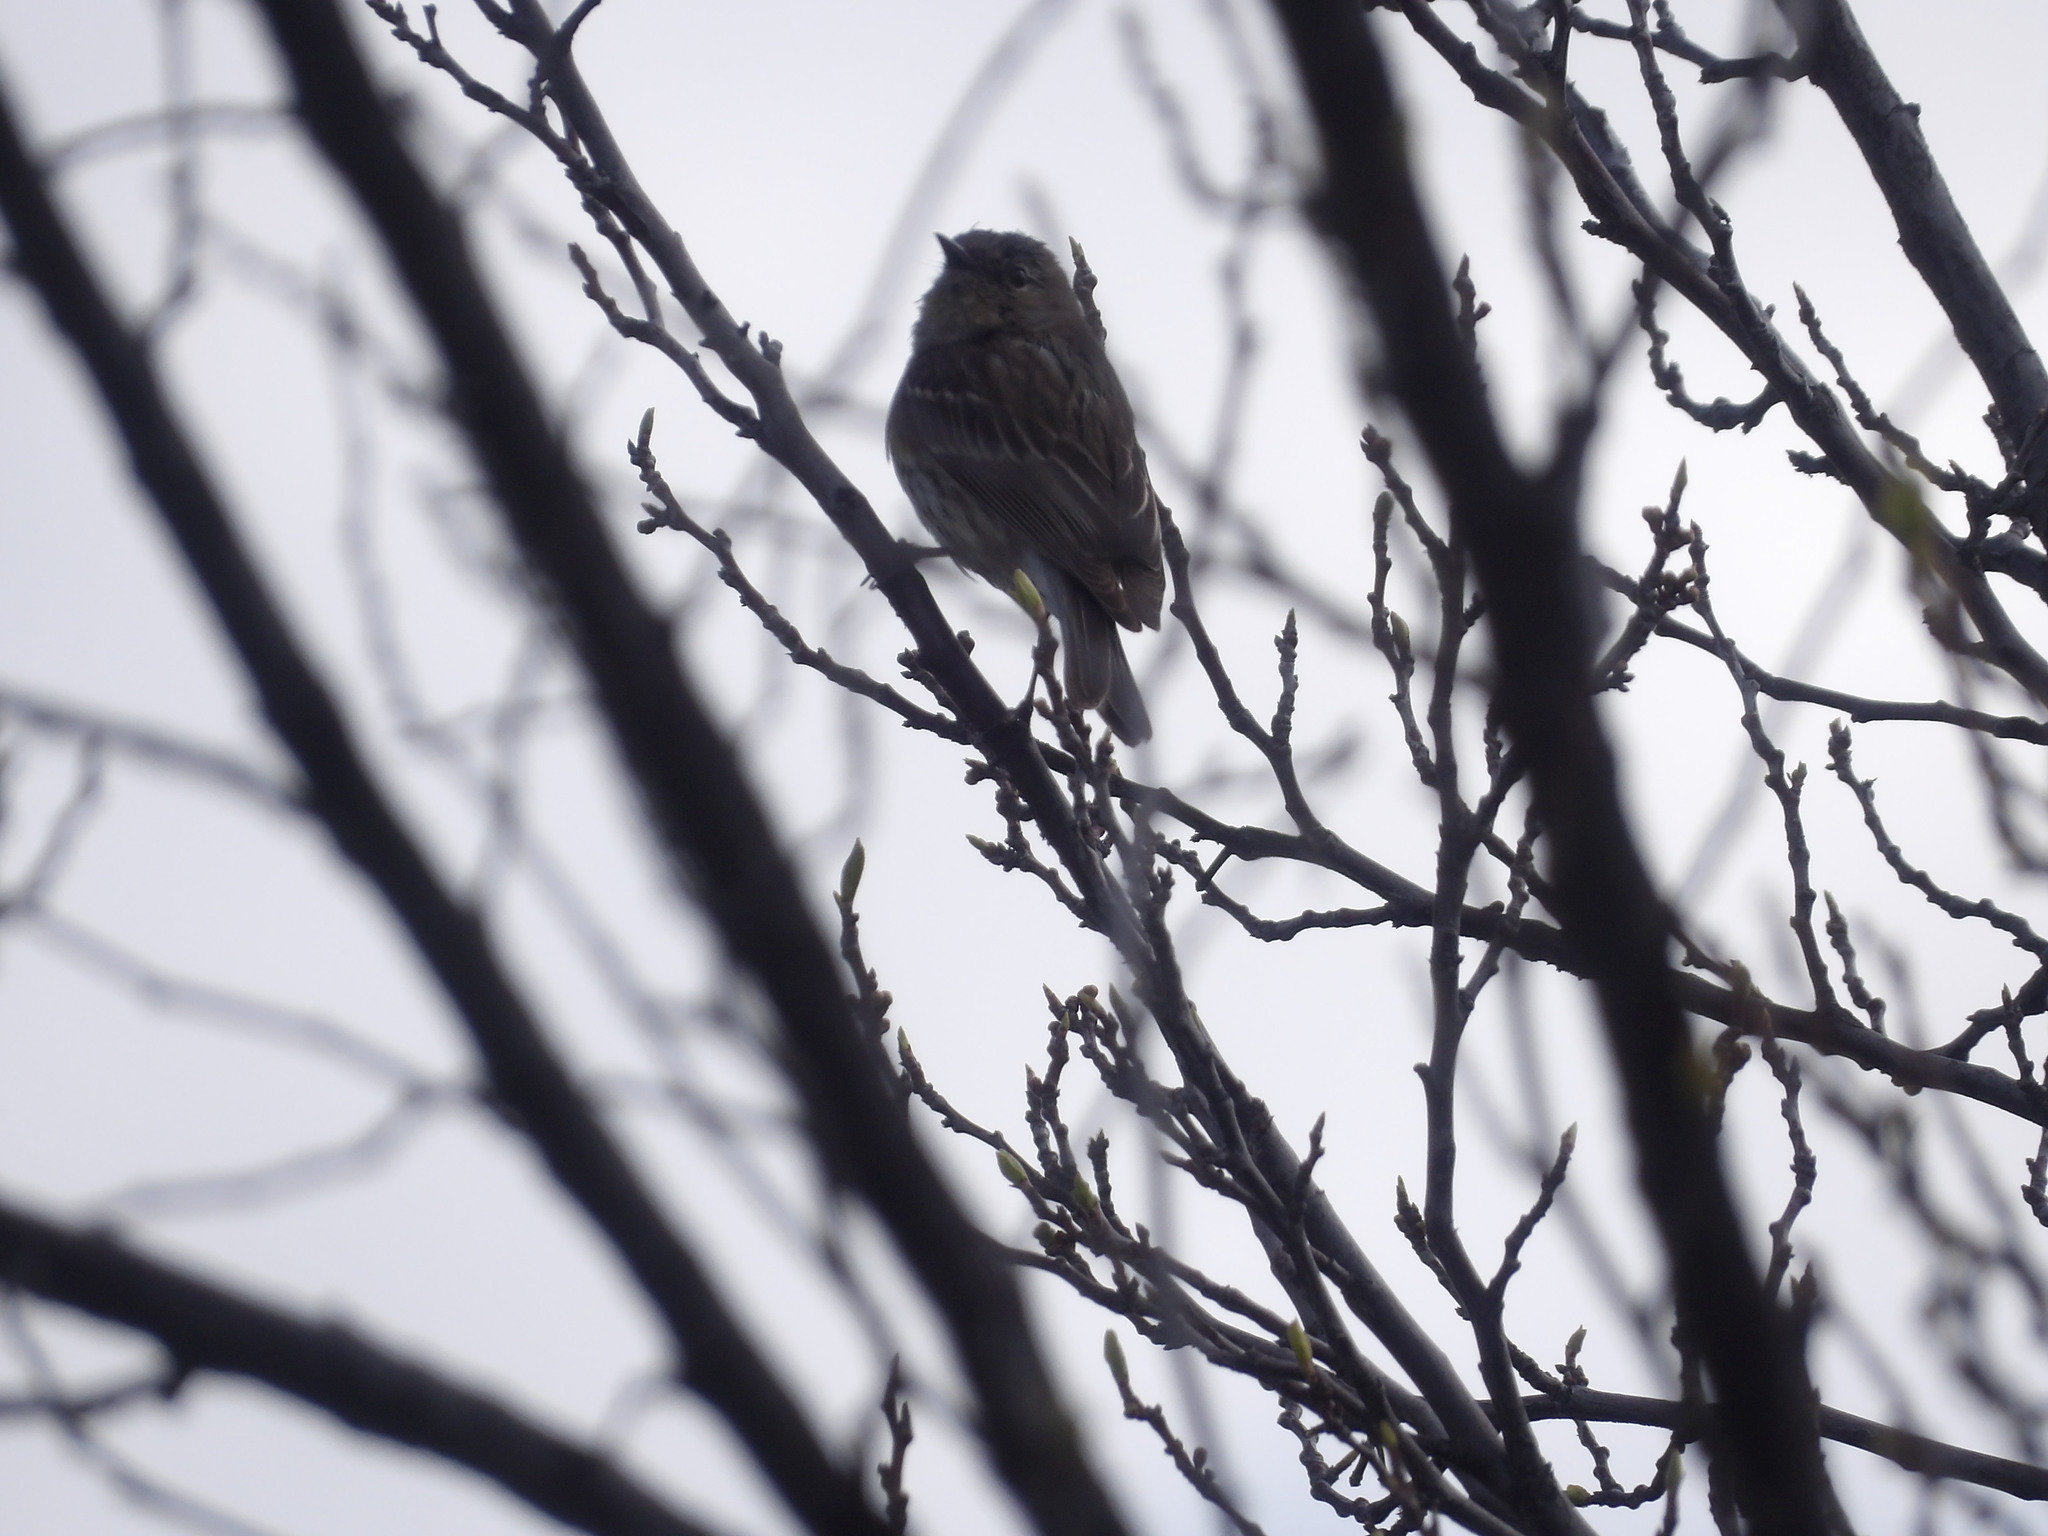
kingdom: Animalia
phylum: Chordata
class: Aves
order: Passeriformes
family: Parulidae
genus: Setophaga
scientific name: Setophaga coronata
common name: Myrtle warbler
